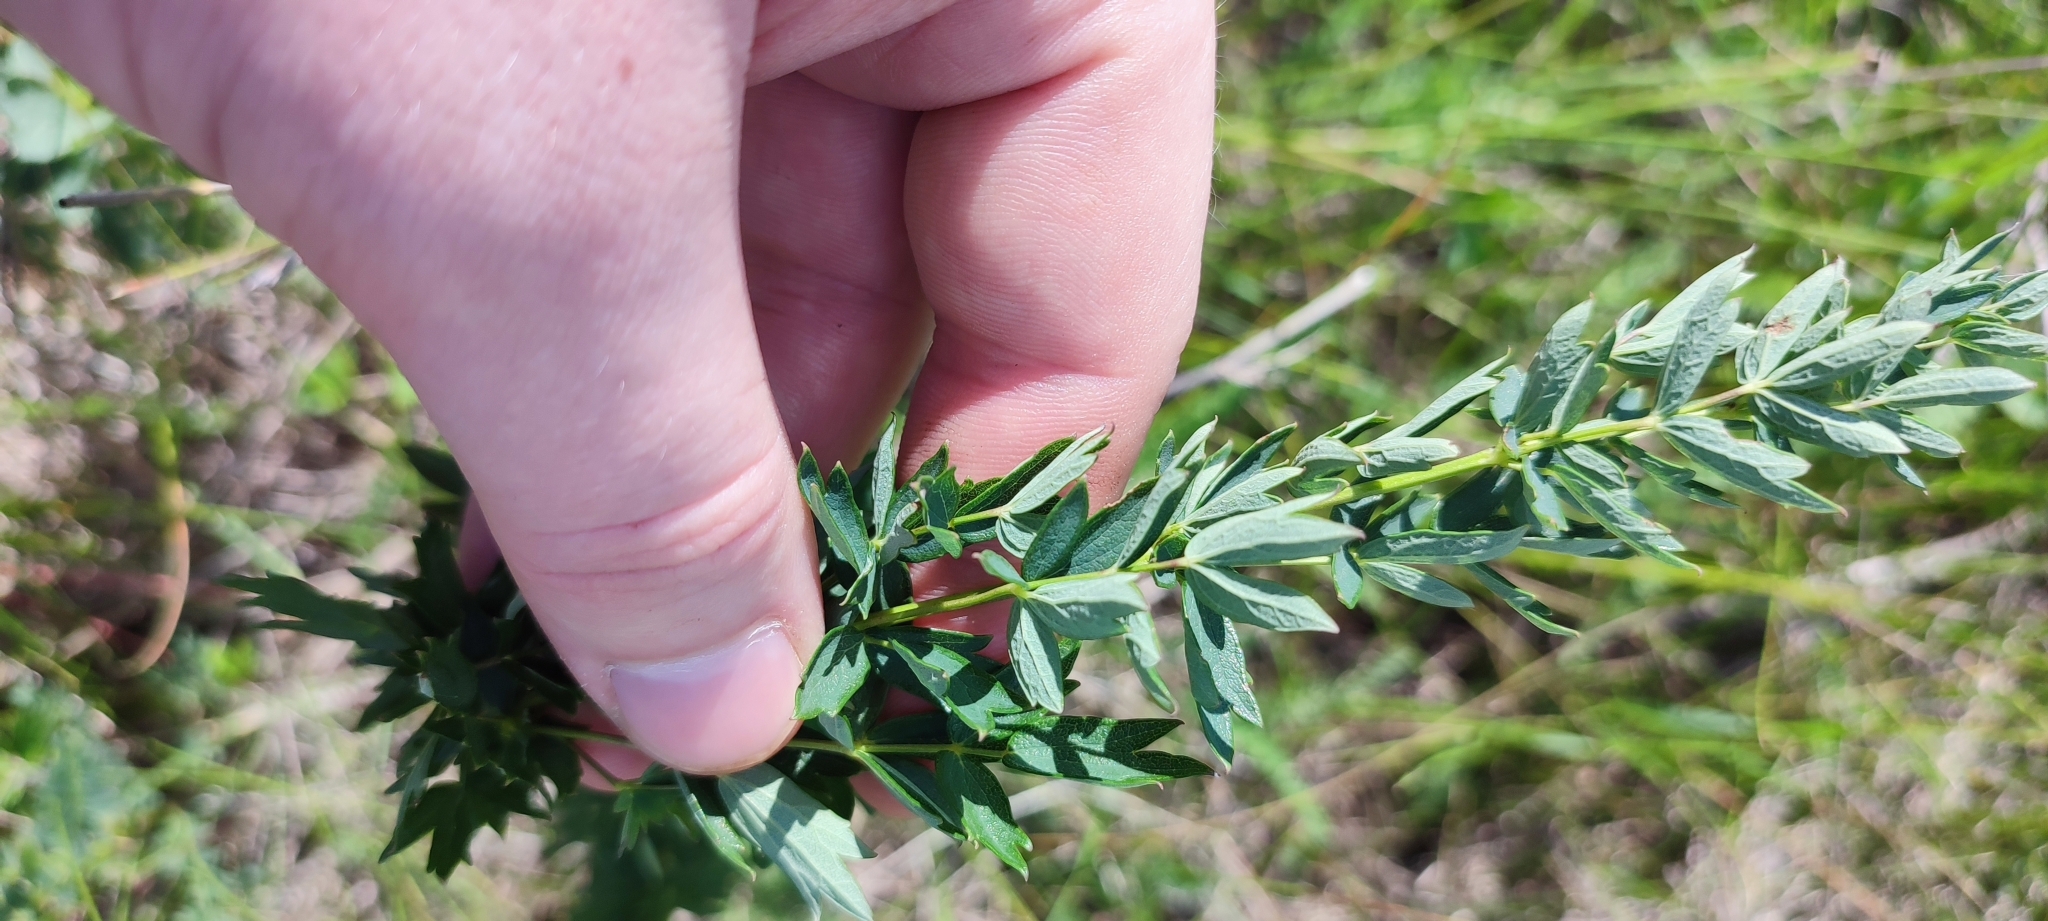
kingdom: Plantae
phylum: Tracheophyta
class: Magnoliopsida
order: Ranunculales
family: Ranunculaceae
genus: Thalictrum
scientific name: Thalictrum simplex
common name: Small meadow-rue
